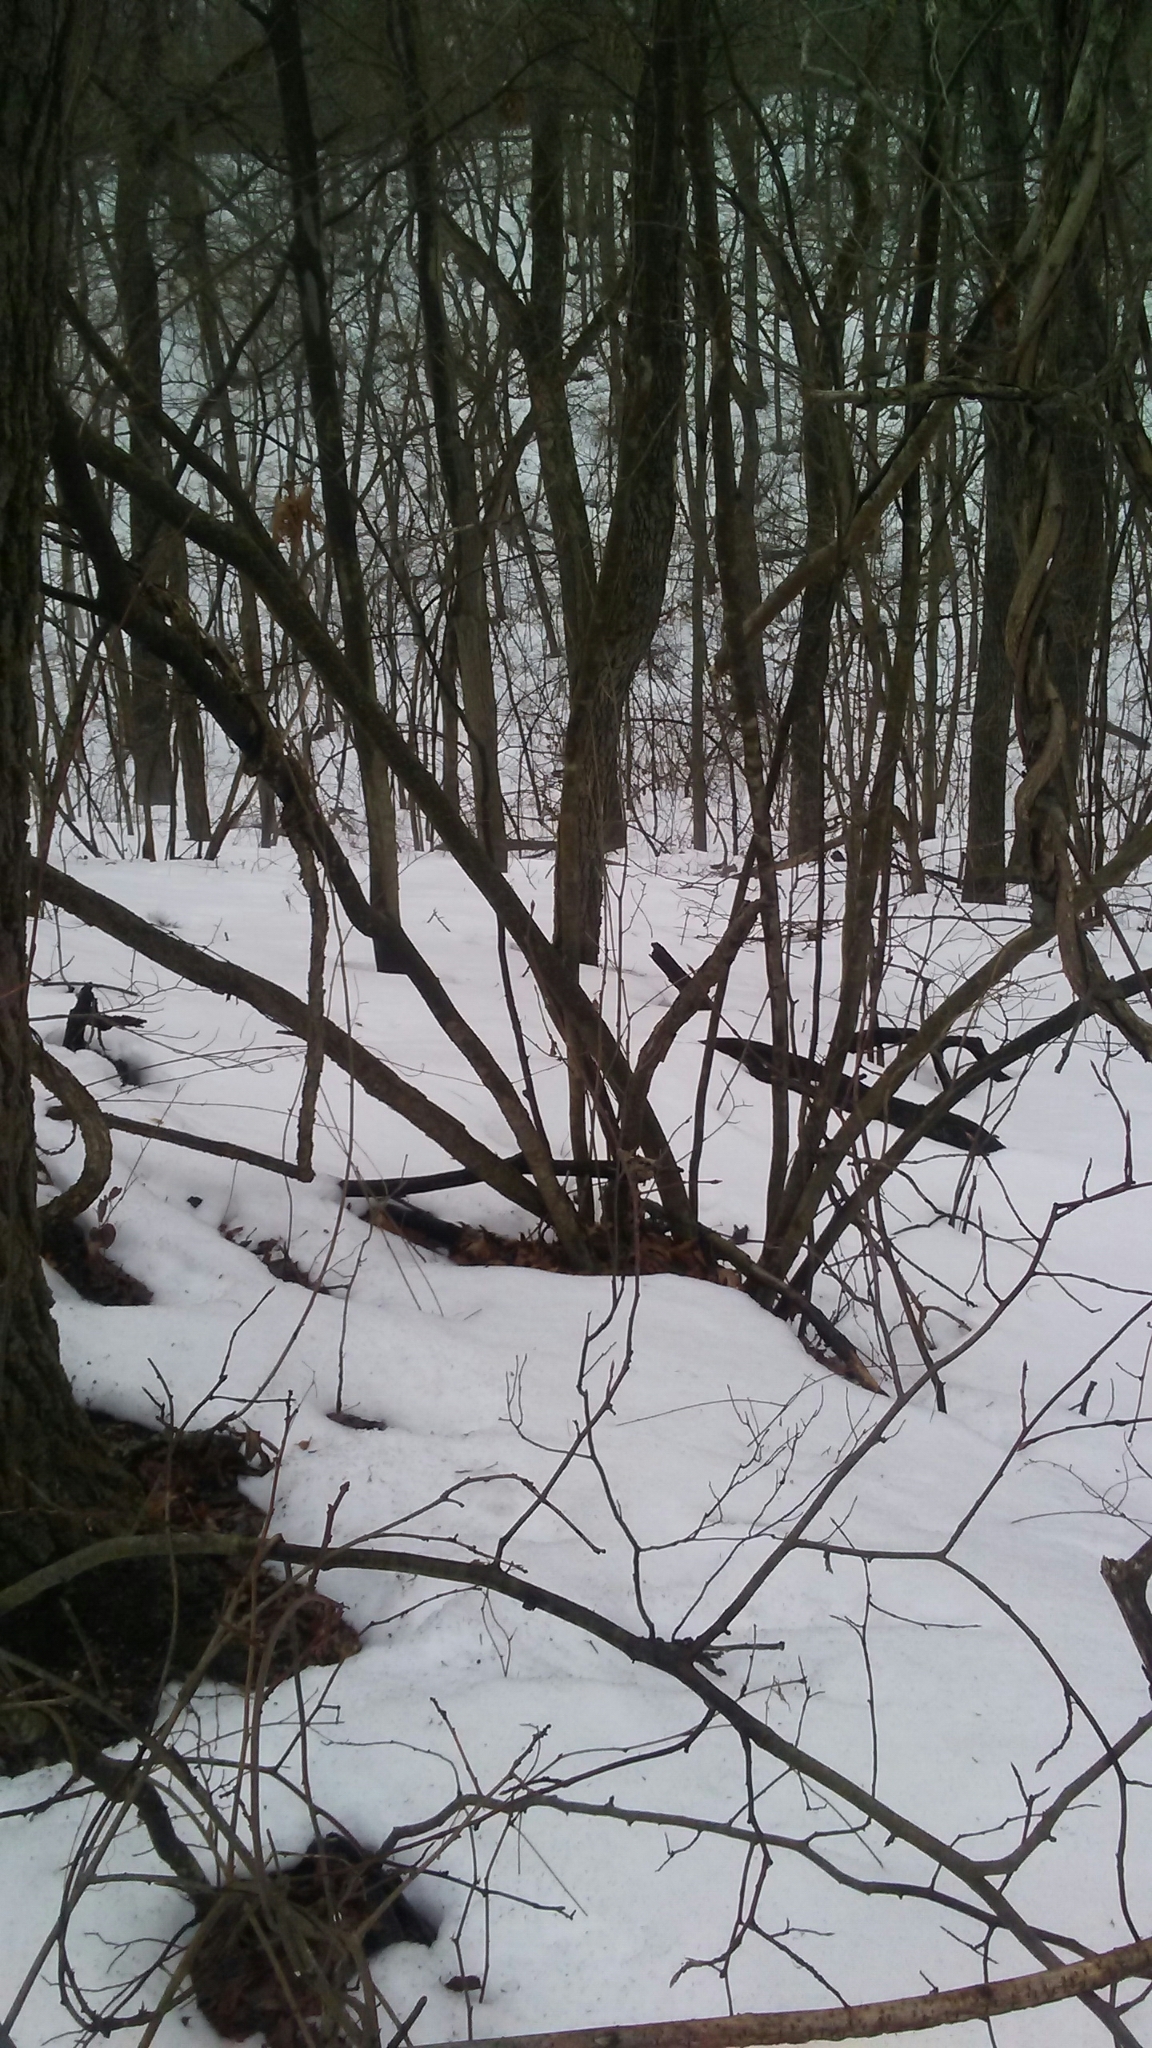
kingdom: Plantae
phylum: Tracheophyta
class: Magnoliopsida
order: Saxifragales
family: Hamamelidaceae
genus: Hamamelis
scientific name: Hamamelis virginiana
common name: Witch-hazel
